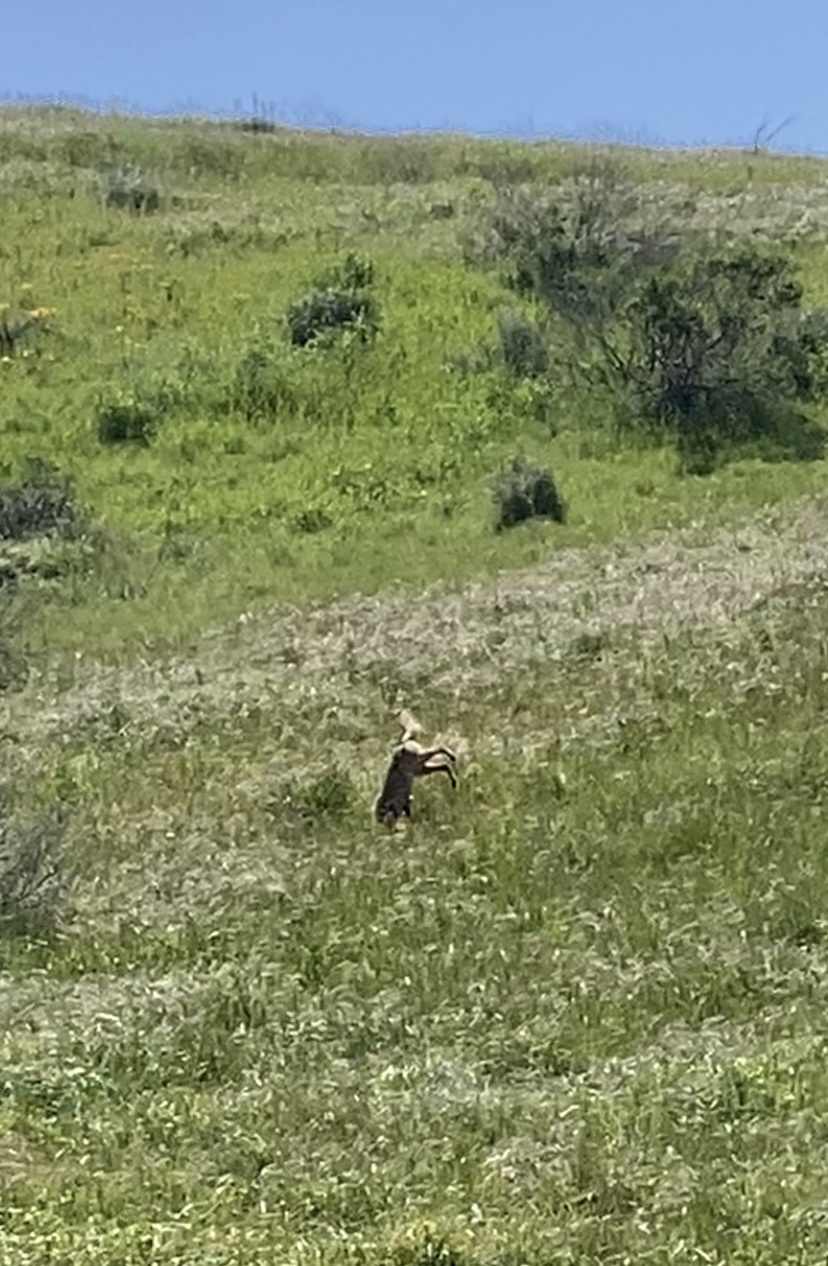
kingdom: Animalia
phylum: Chordata
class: Mammalia
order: Carnivora
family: Canidae
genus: Canis
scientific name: Canis latrans
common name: Coyote
